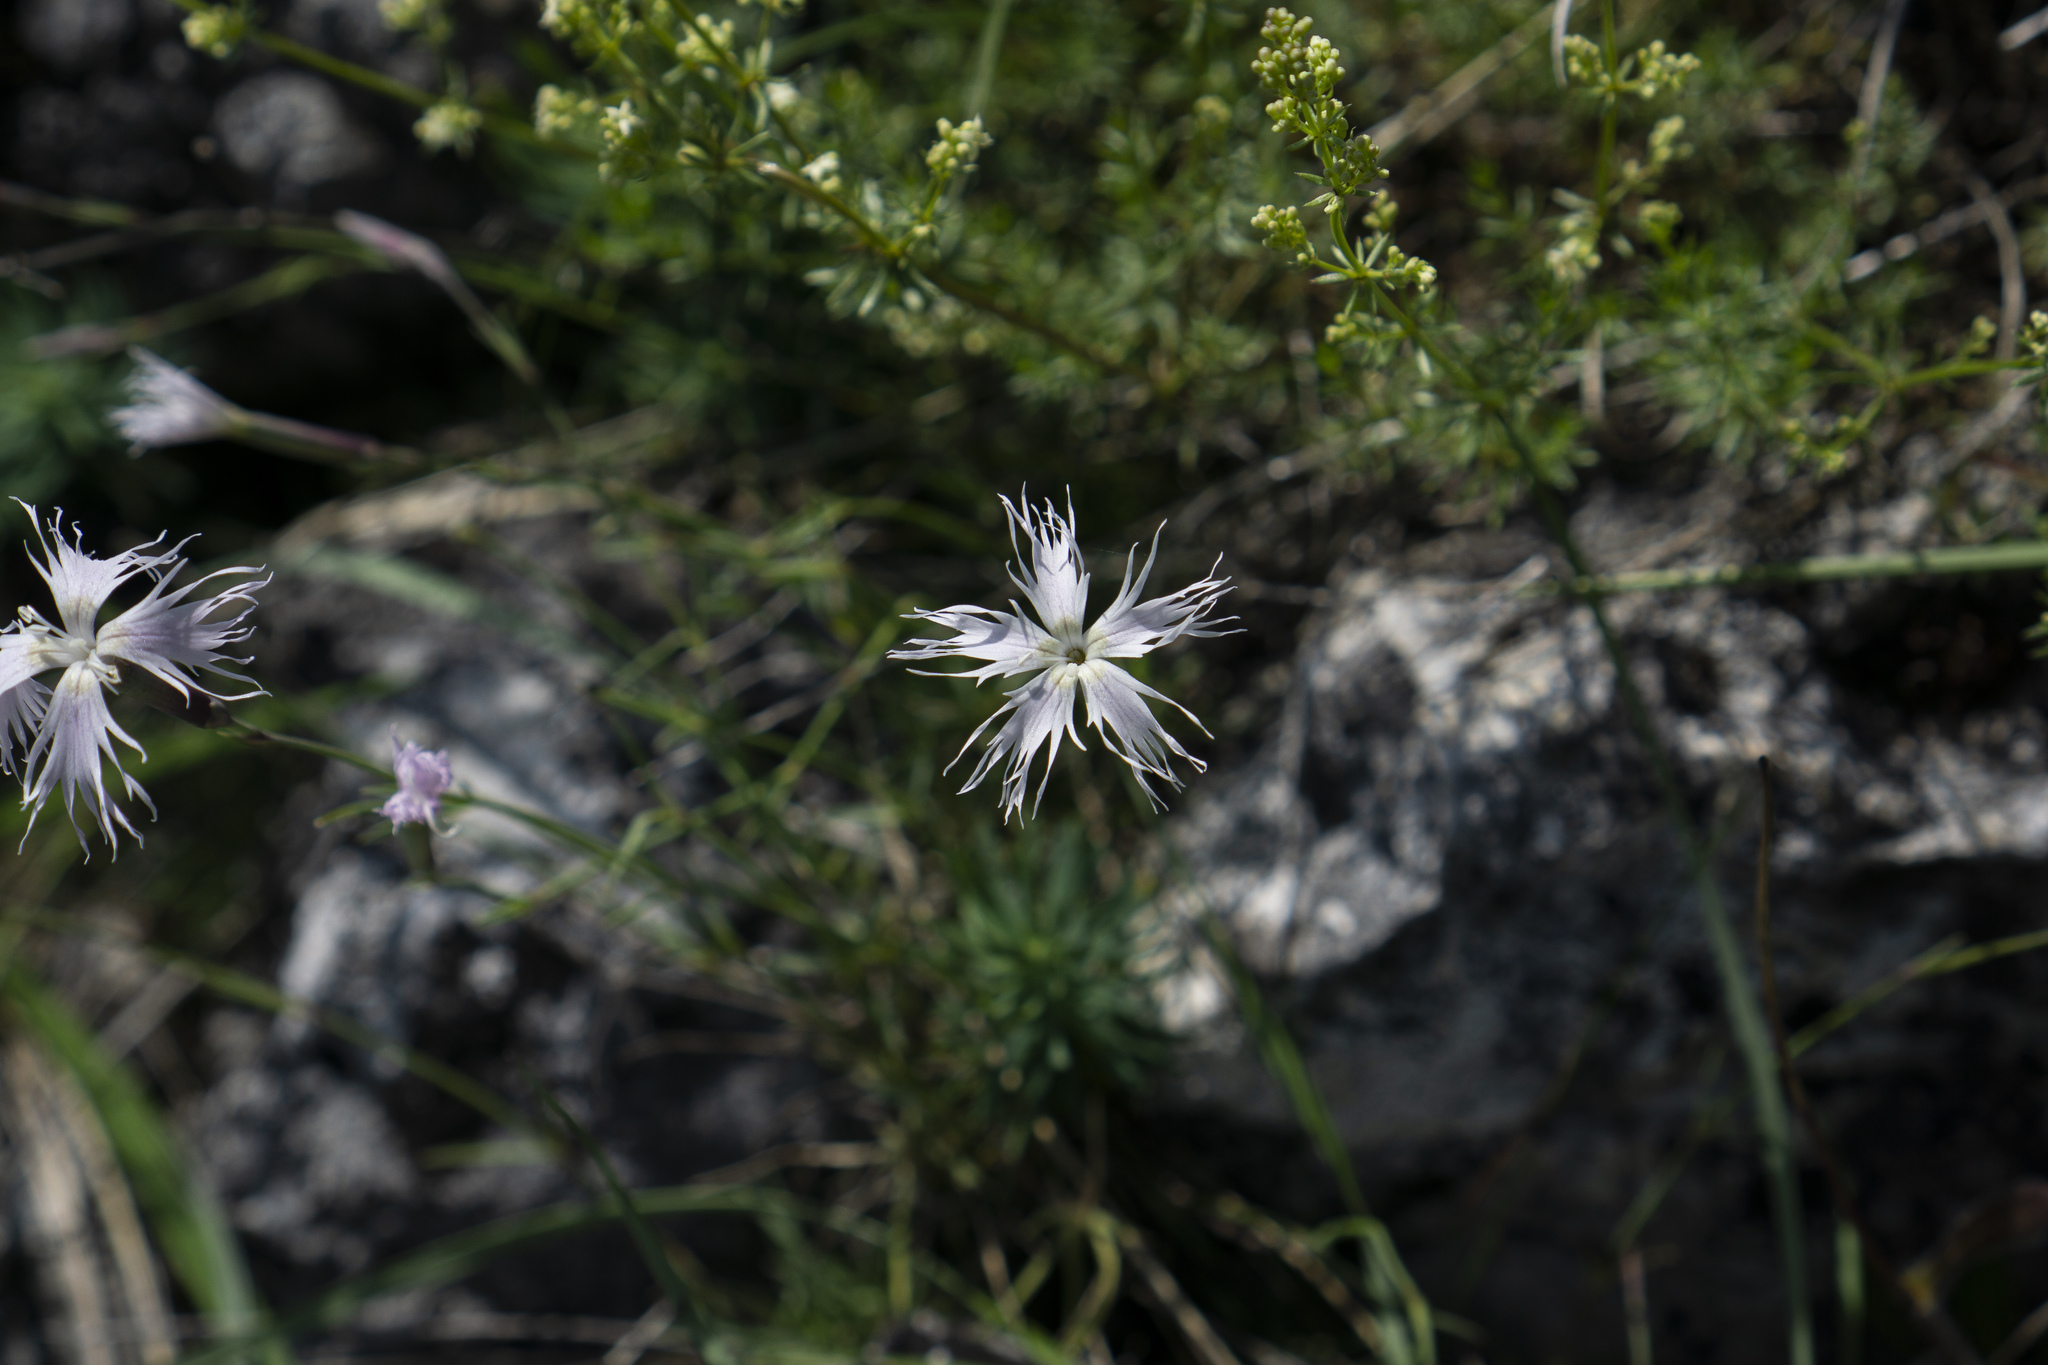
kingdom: Plantae
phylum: Tracheophyta
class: Magnoliopsida
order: Caryophyllales
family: Caryophyllaceae
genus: Dianthus
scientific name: Dianthus spiculifolius
